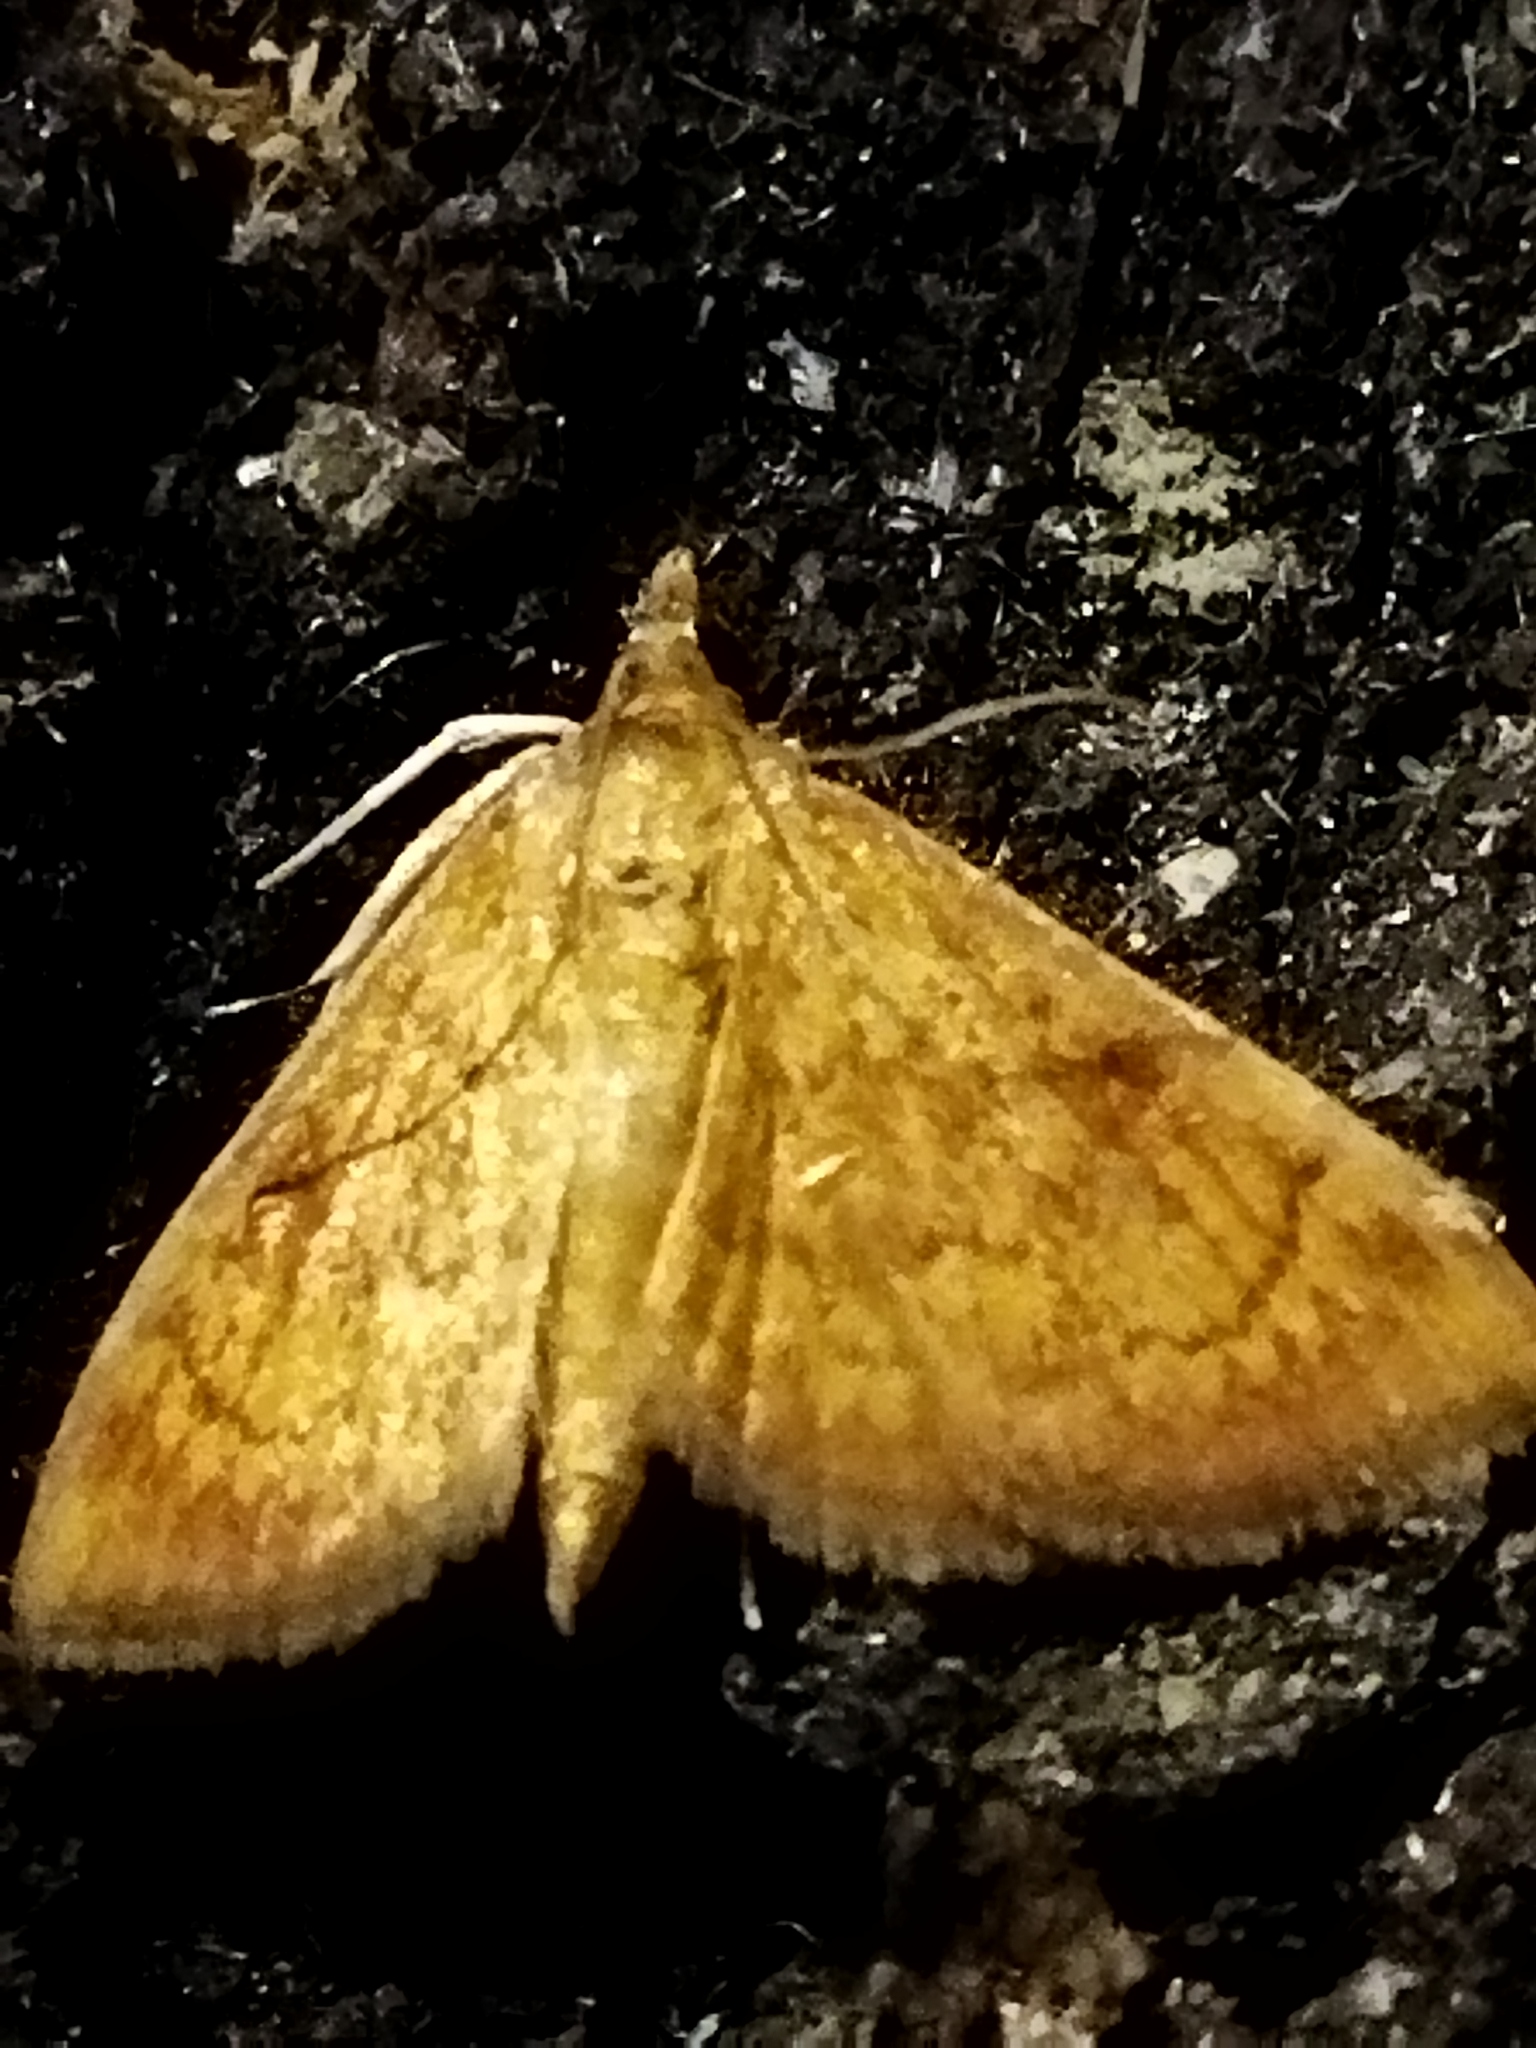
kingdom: Animalia
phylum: Arthropoda
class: Insecta
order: Lepidoptera
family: Crambidae
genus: Ecpyrrhorrhoe
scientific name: Ecpyrrhorrhoe rubiginalis
